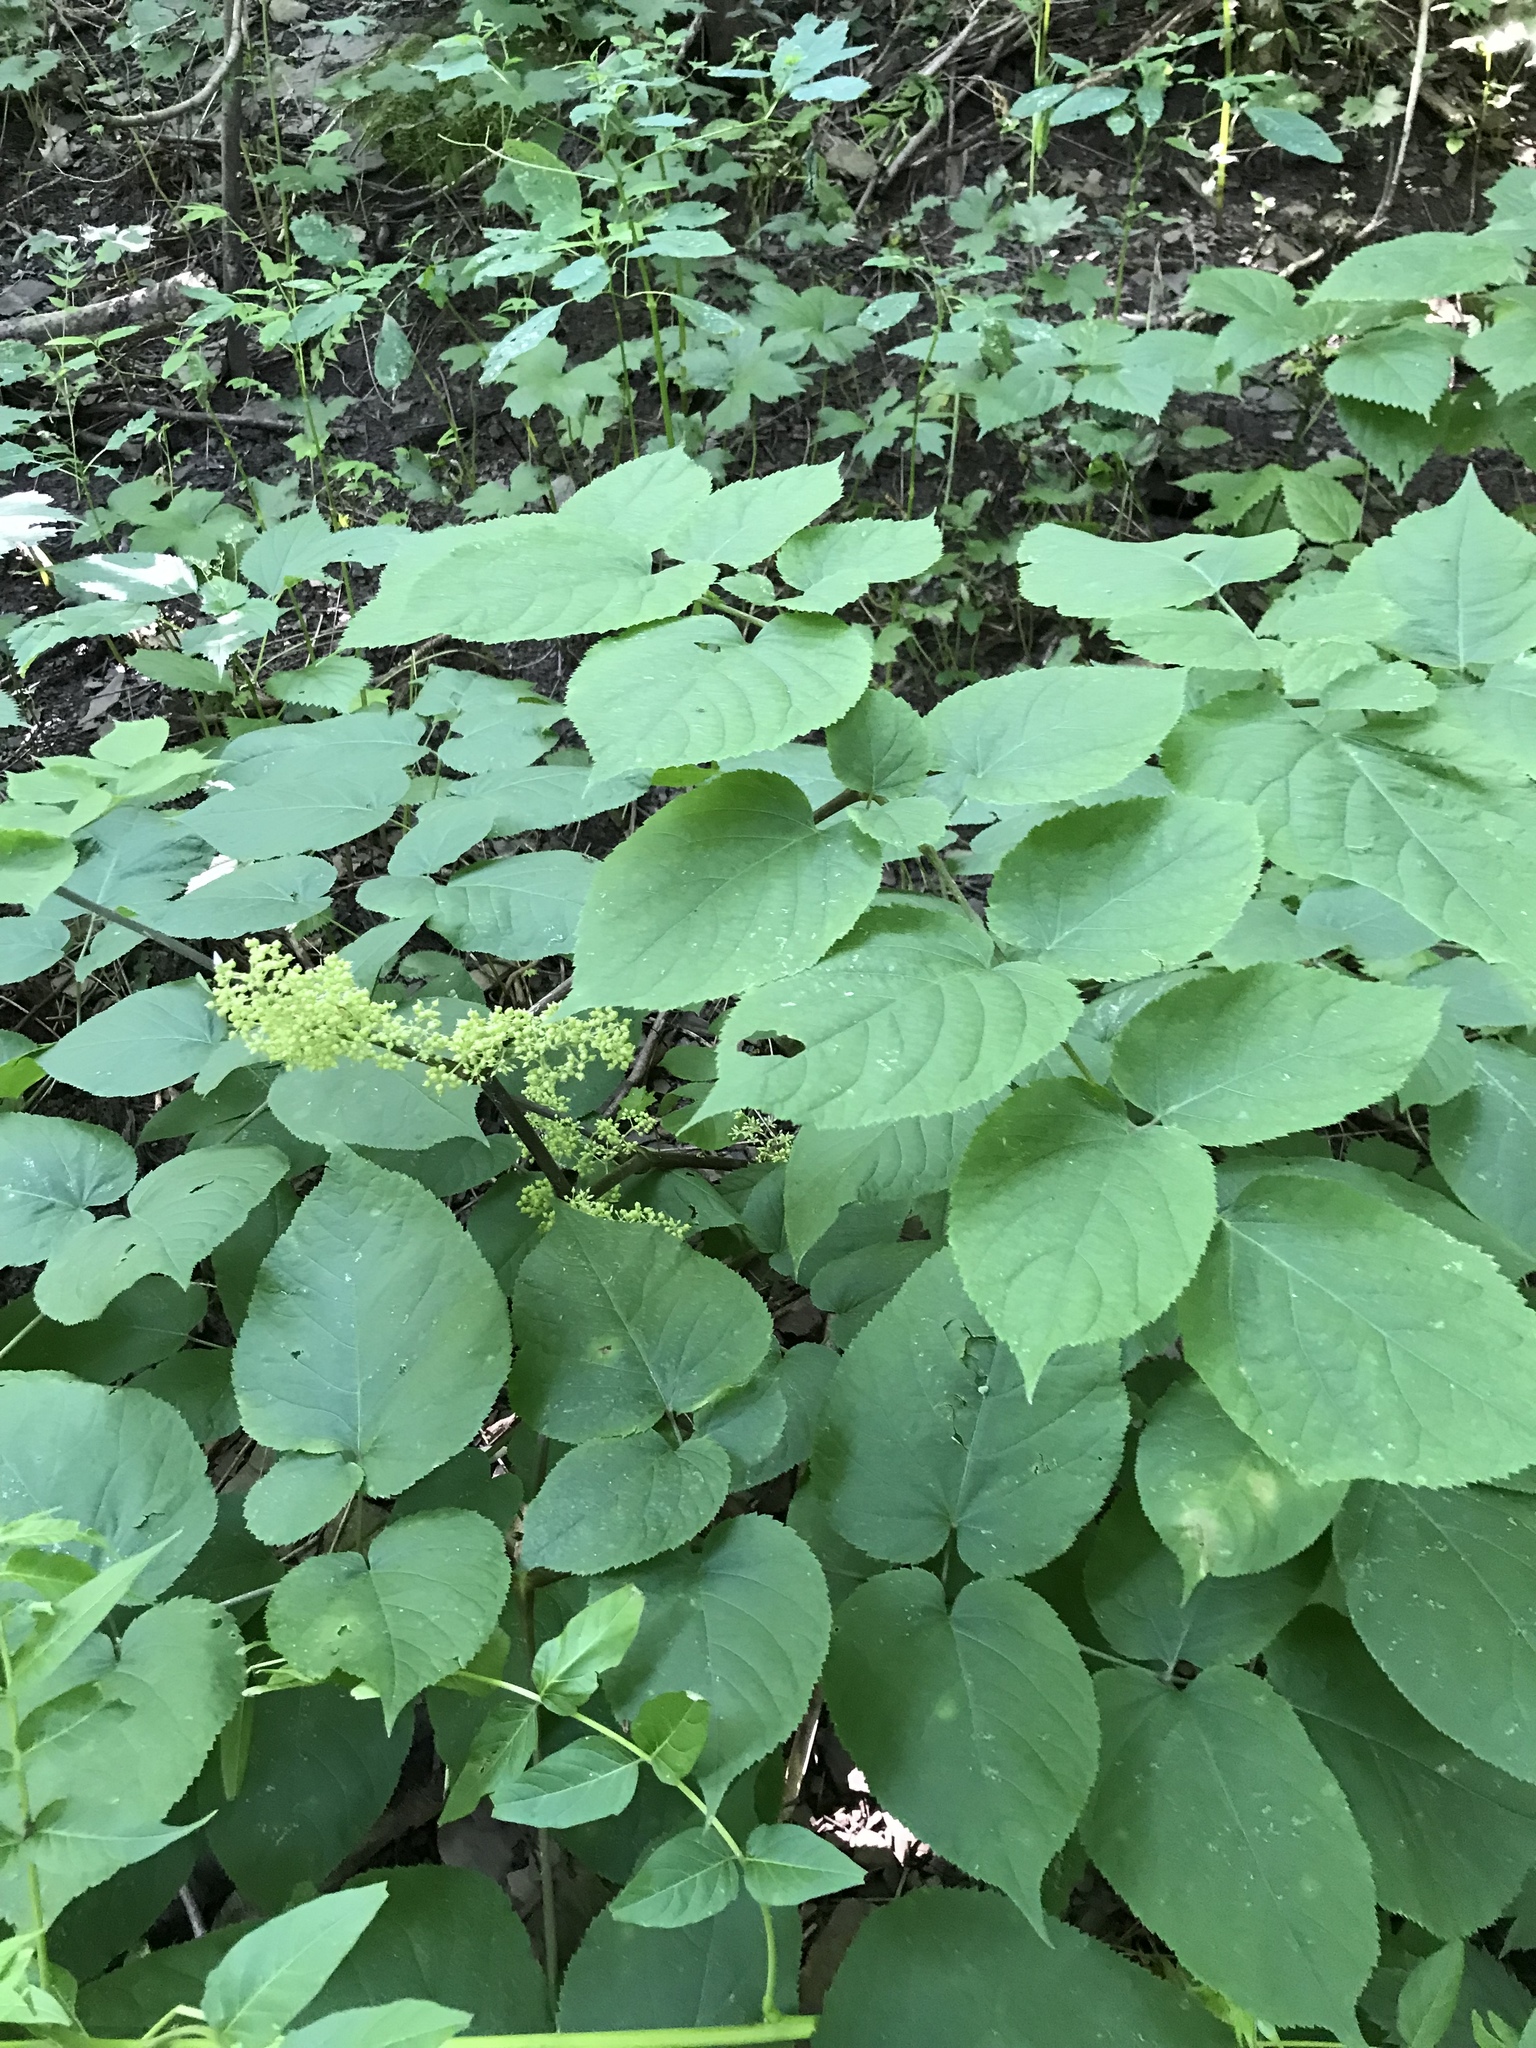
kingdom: Plantae
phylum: Tracheophyta
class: Magnoliopsida
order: Apiales
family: Araliaceae
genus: Aralia
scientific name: Aralia racemosa
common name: American-spikenard
